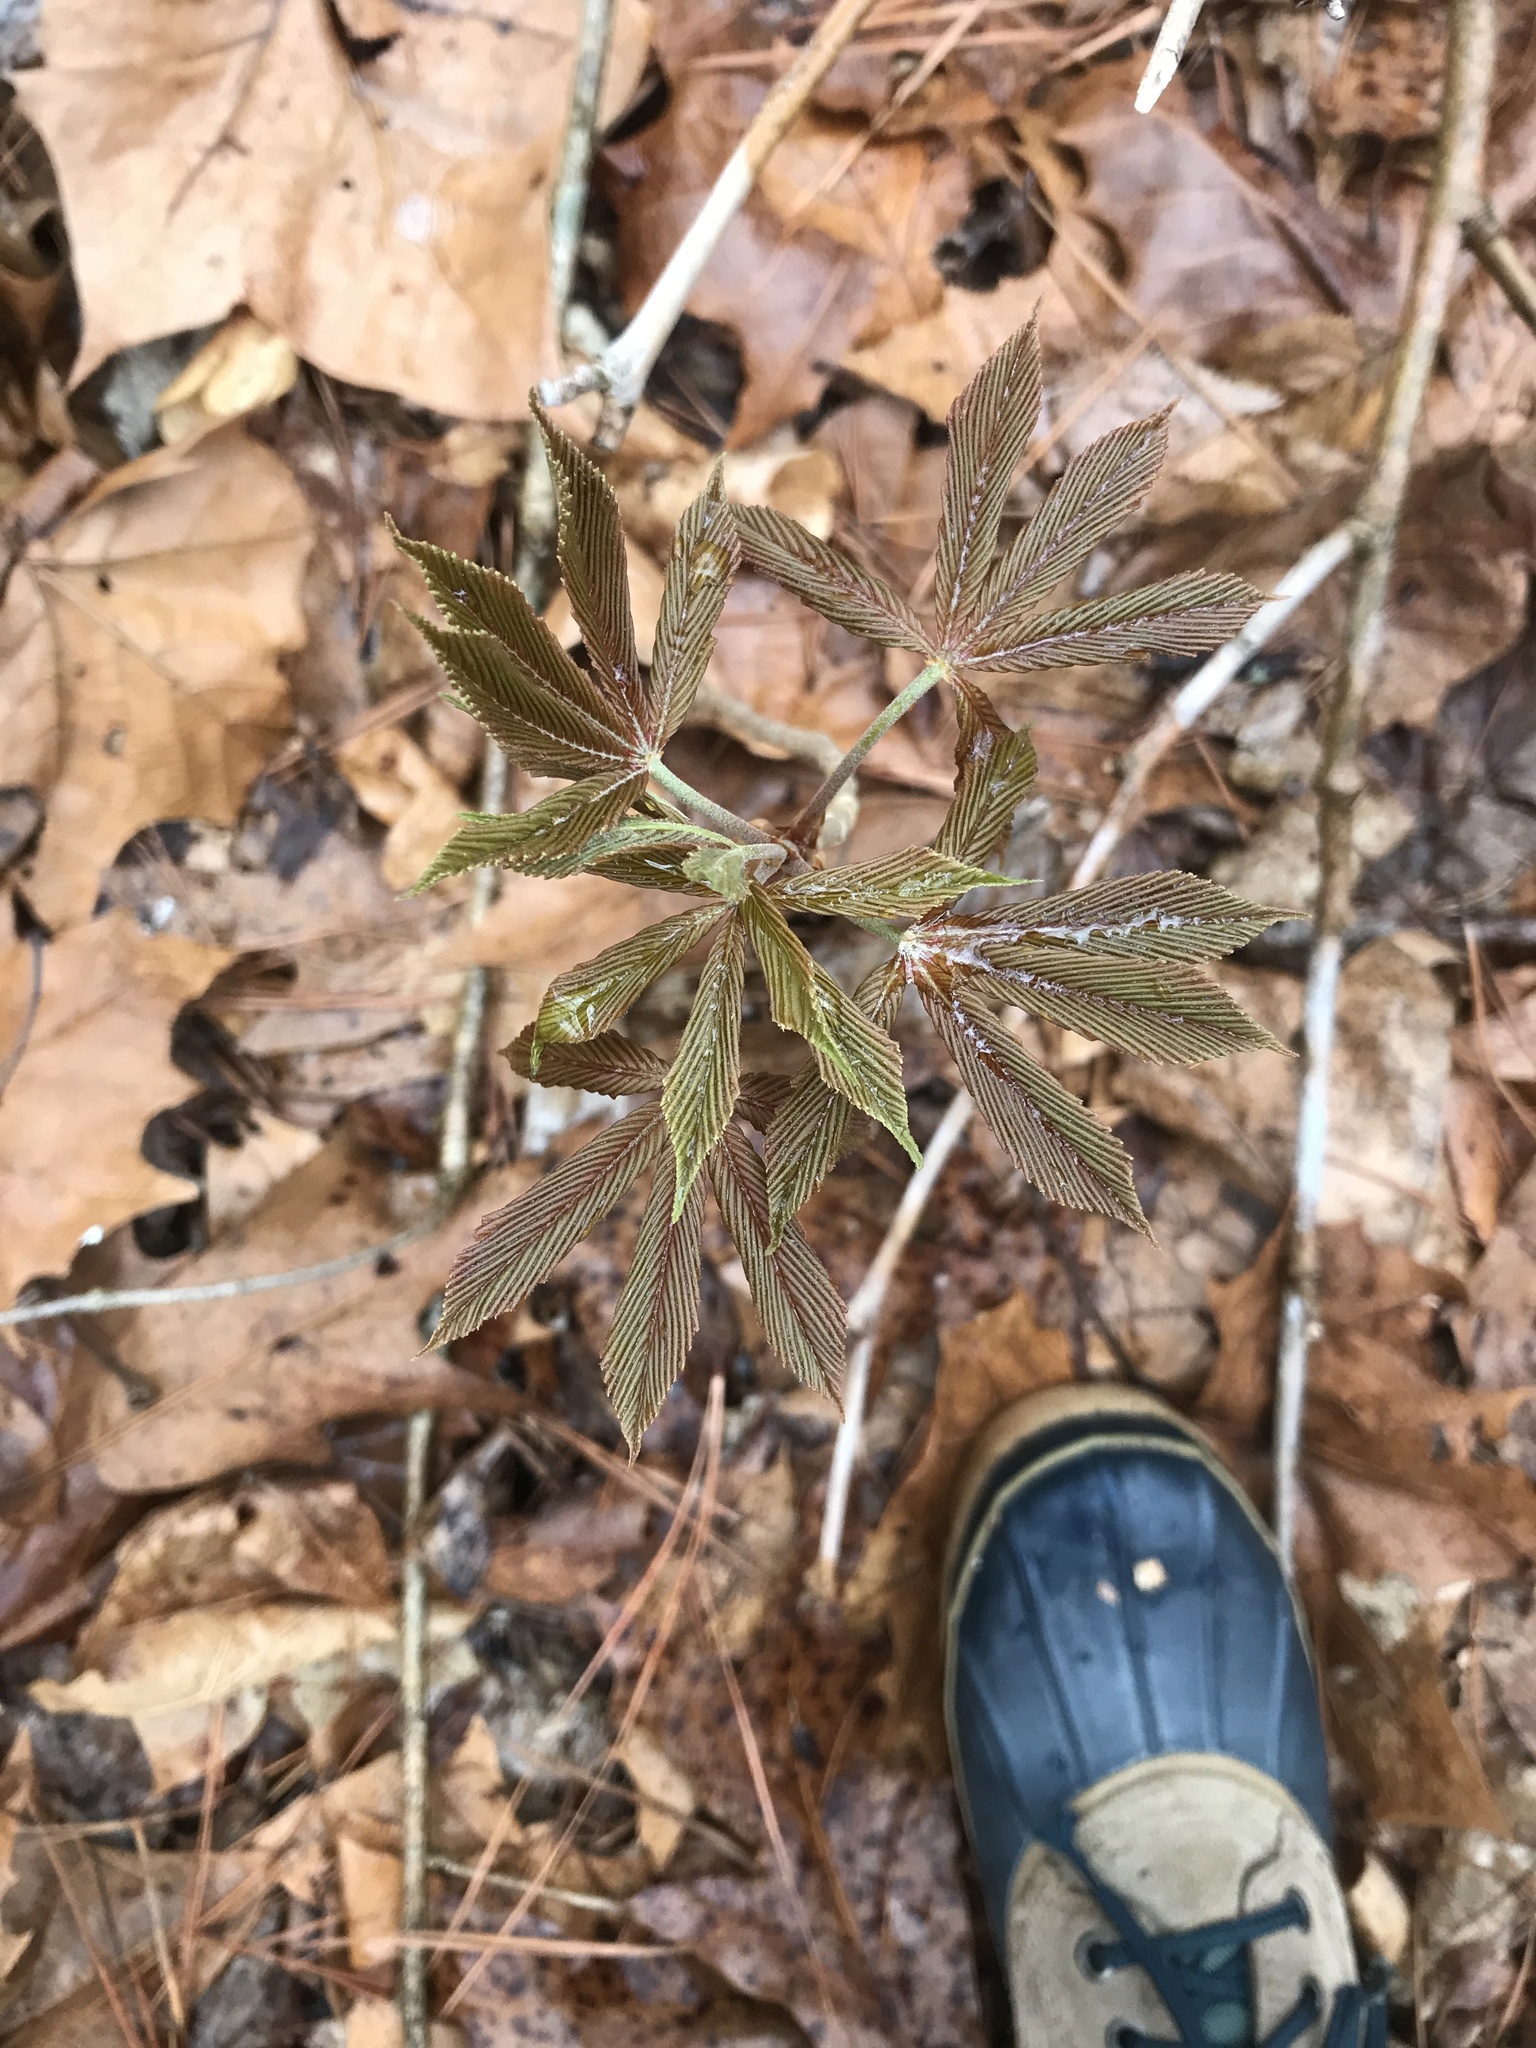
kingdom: Plantae
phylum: Tracheophyta
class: Magnoliopsida
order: Sapindales
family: Sapindaceae
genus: Aesculus
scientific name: Aesculus sylvatica
